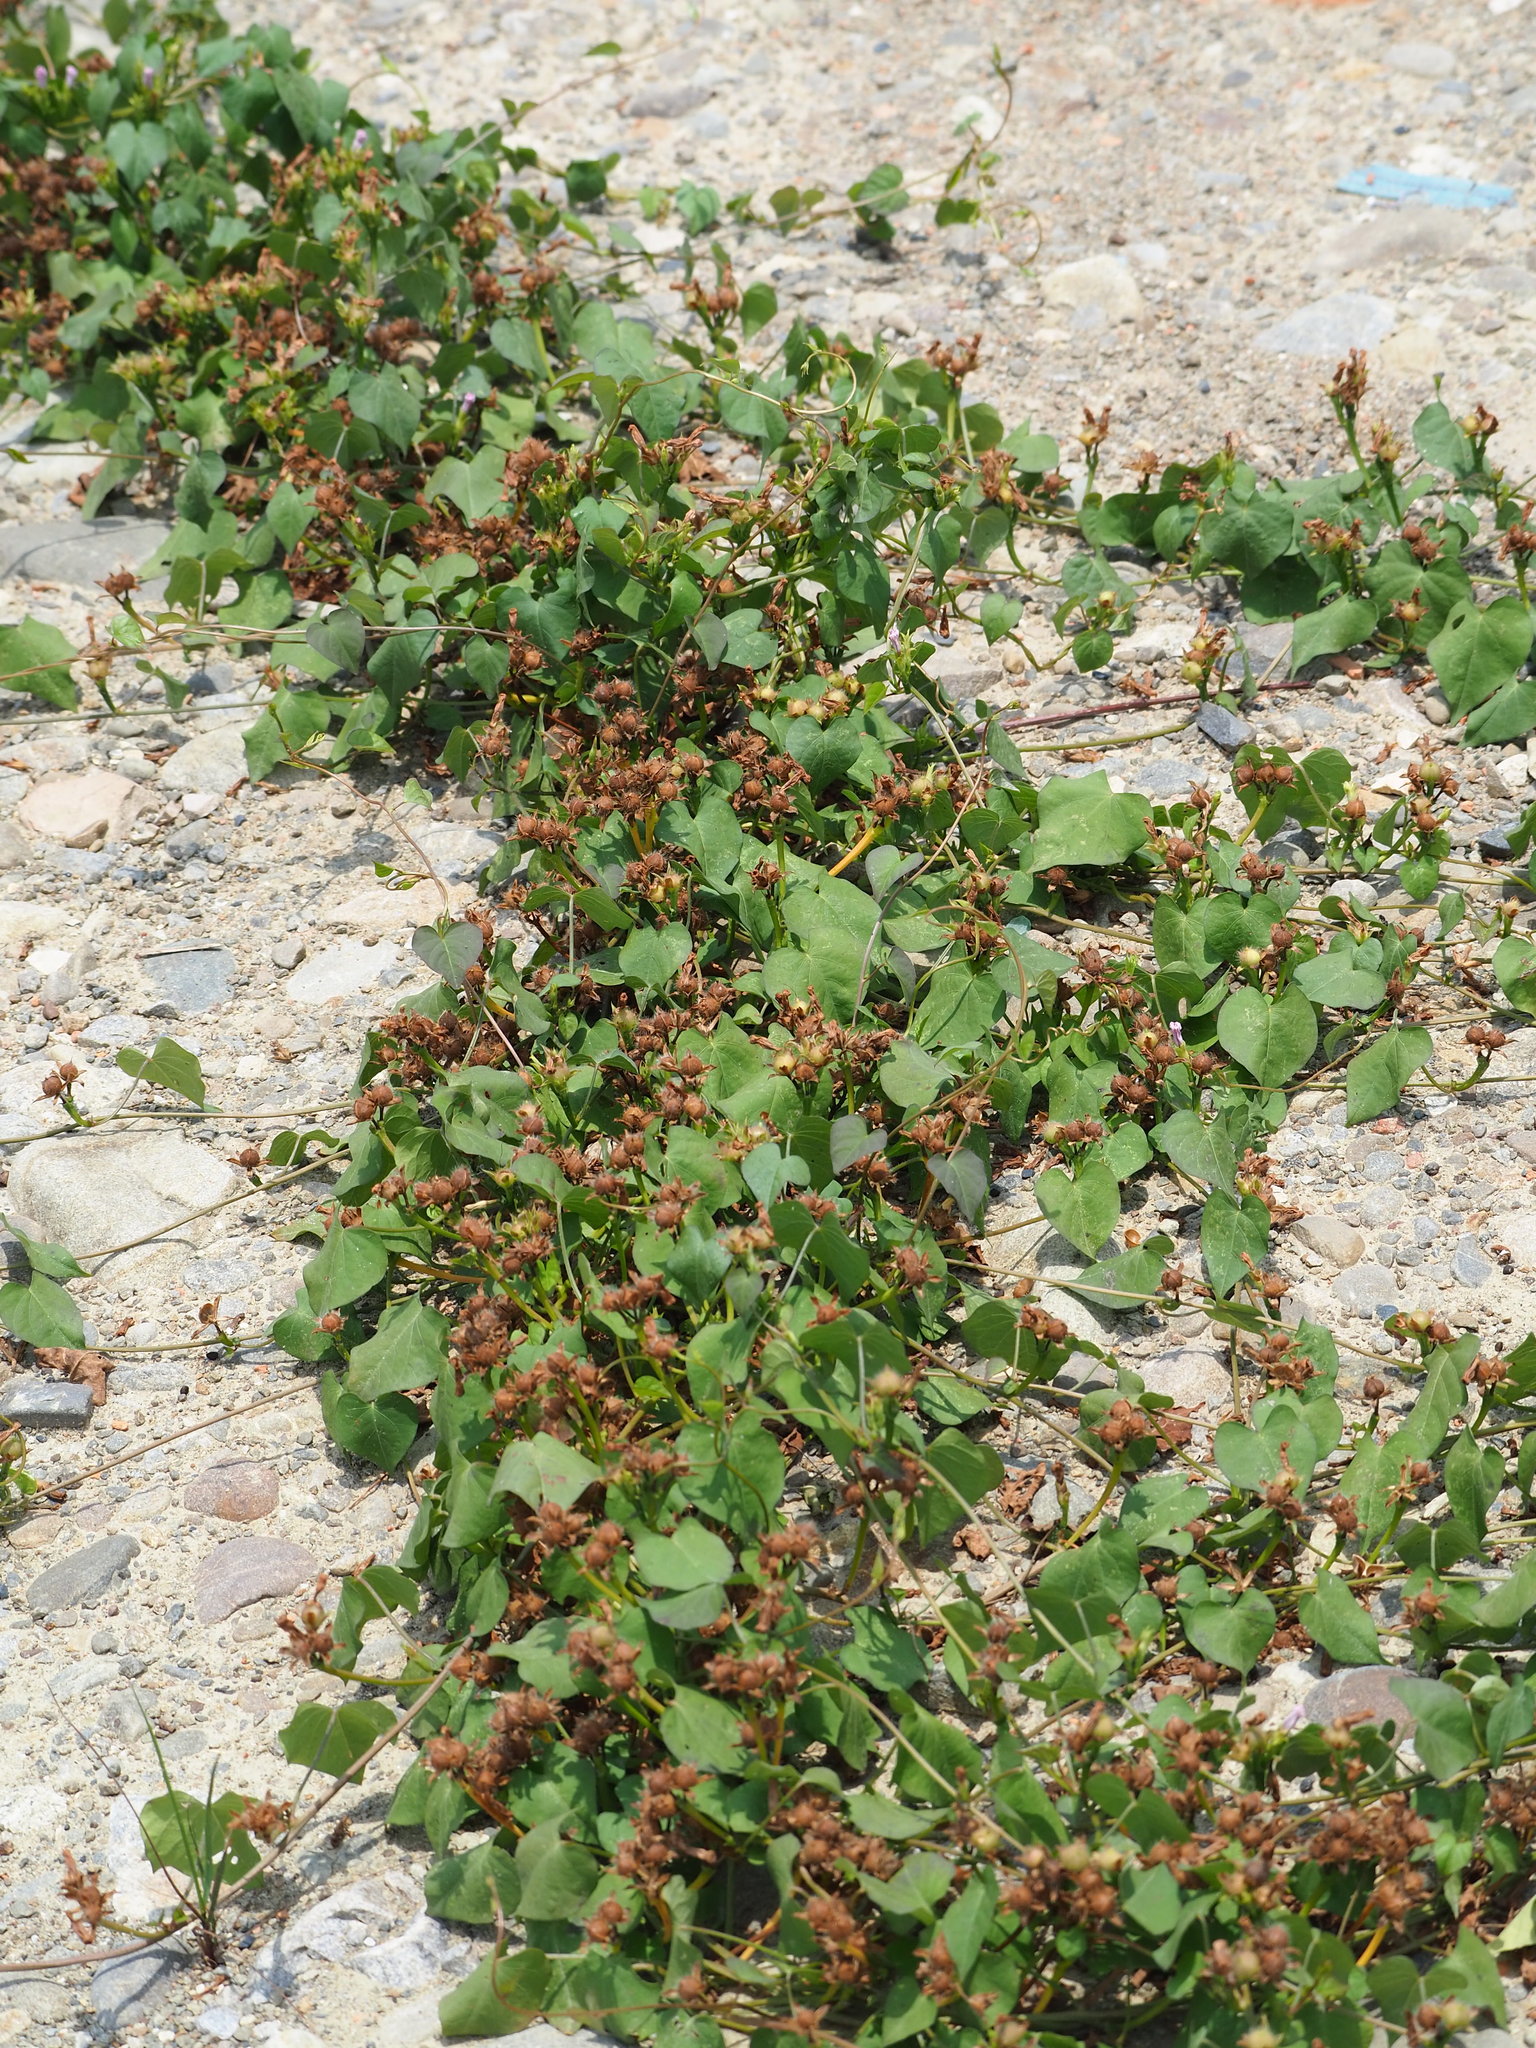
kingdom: Plantae
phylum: Tracheophyta
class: Magnoliopsida
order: Solanales
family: Convolvulaceae
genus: Ipomoea
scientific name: Ipomoea triloba
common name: Little-bell
